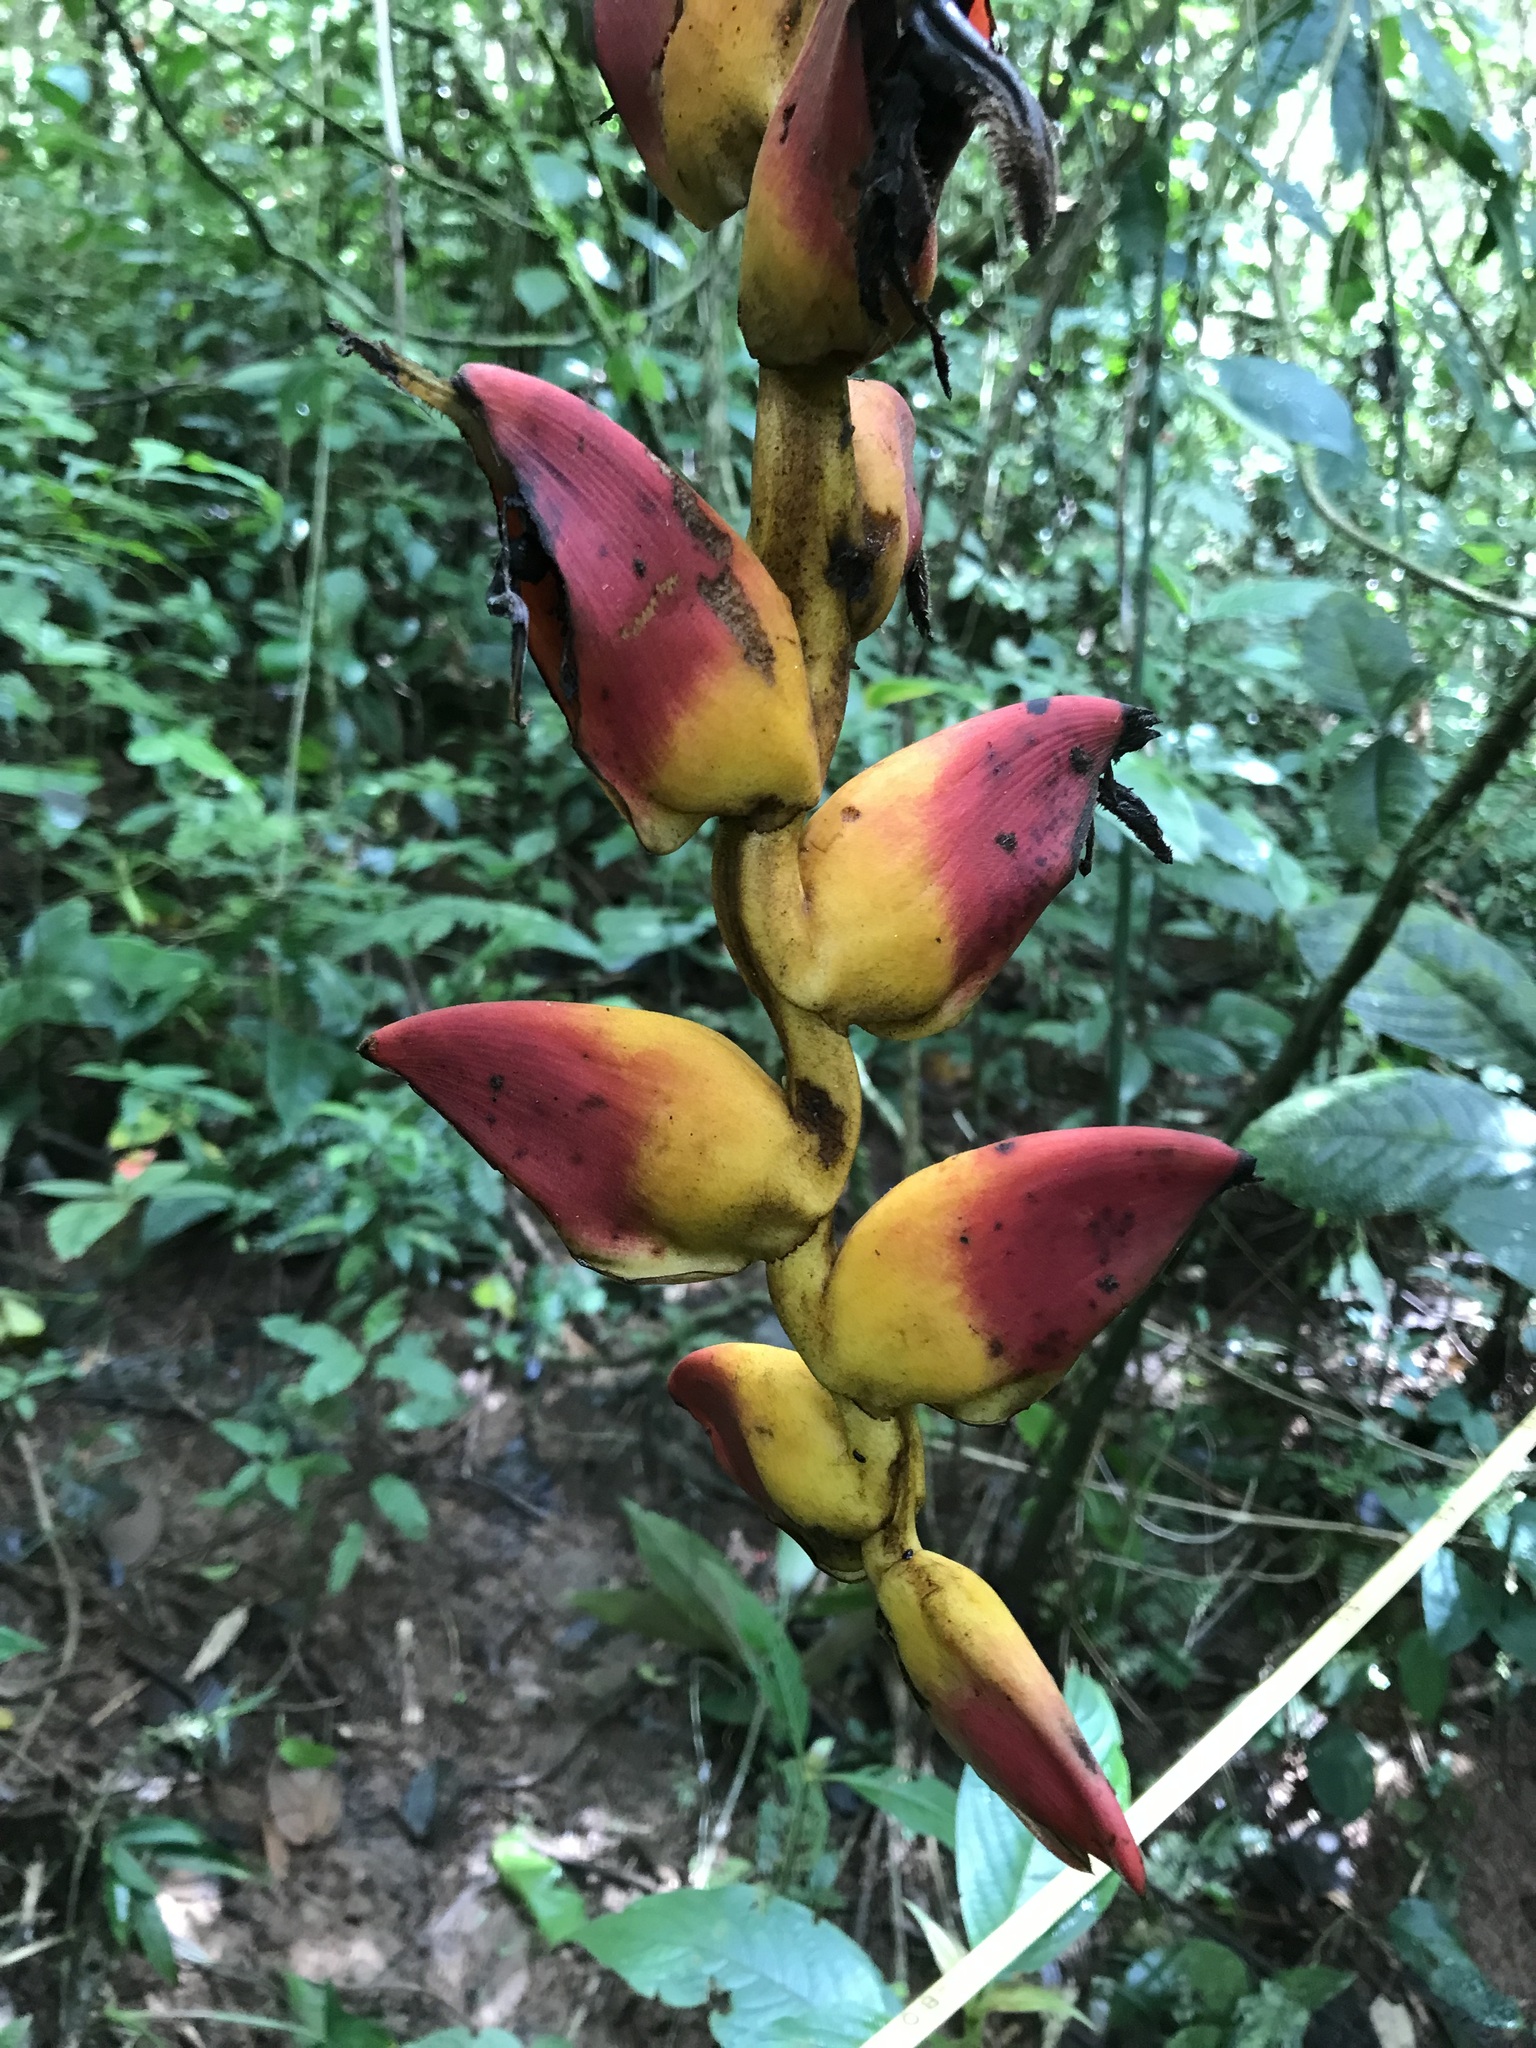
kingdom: Plantae
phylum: Tracheophyta
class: Liliopsida
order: Zingiberales
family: Heliconiaceae
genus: Heliconia
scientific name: Heliconia pogonantha
